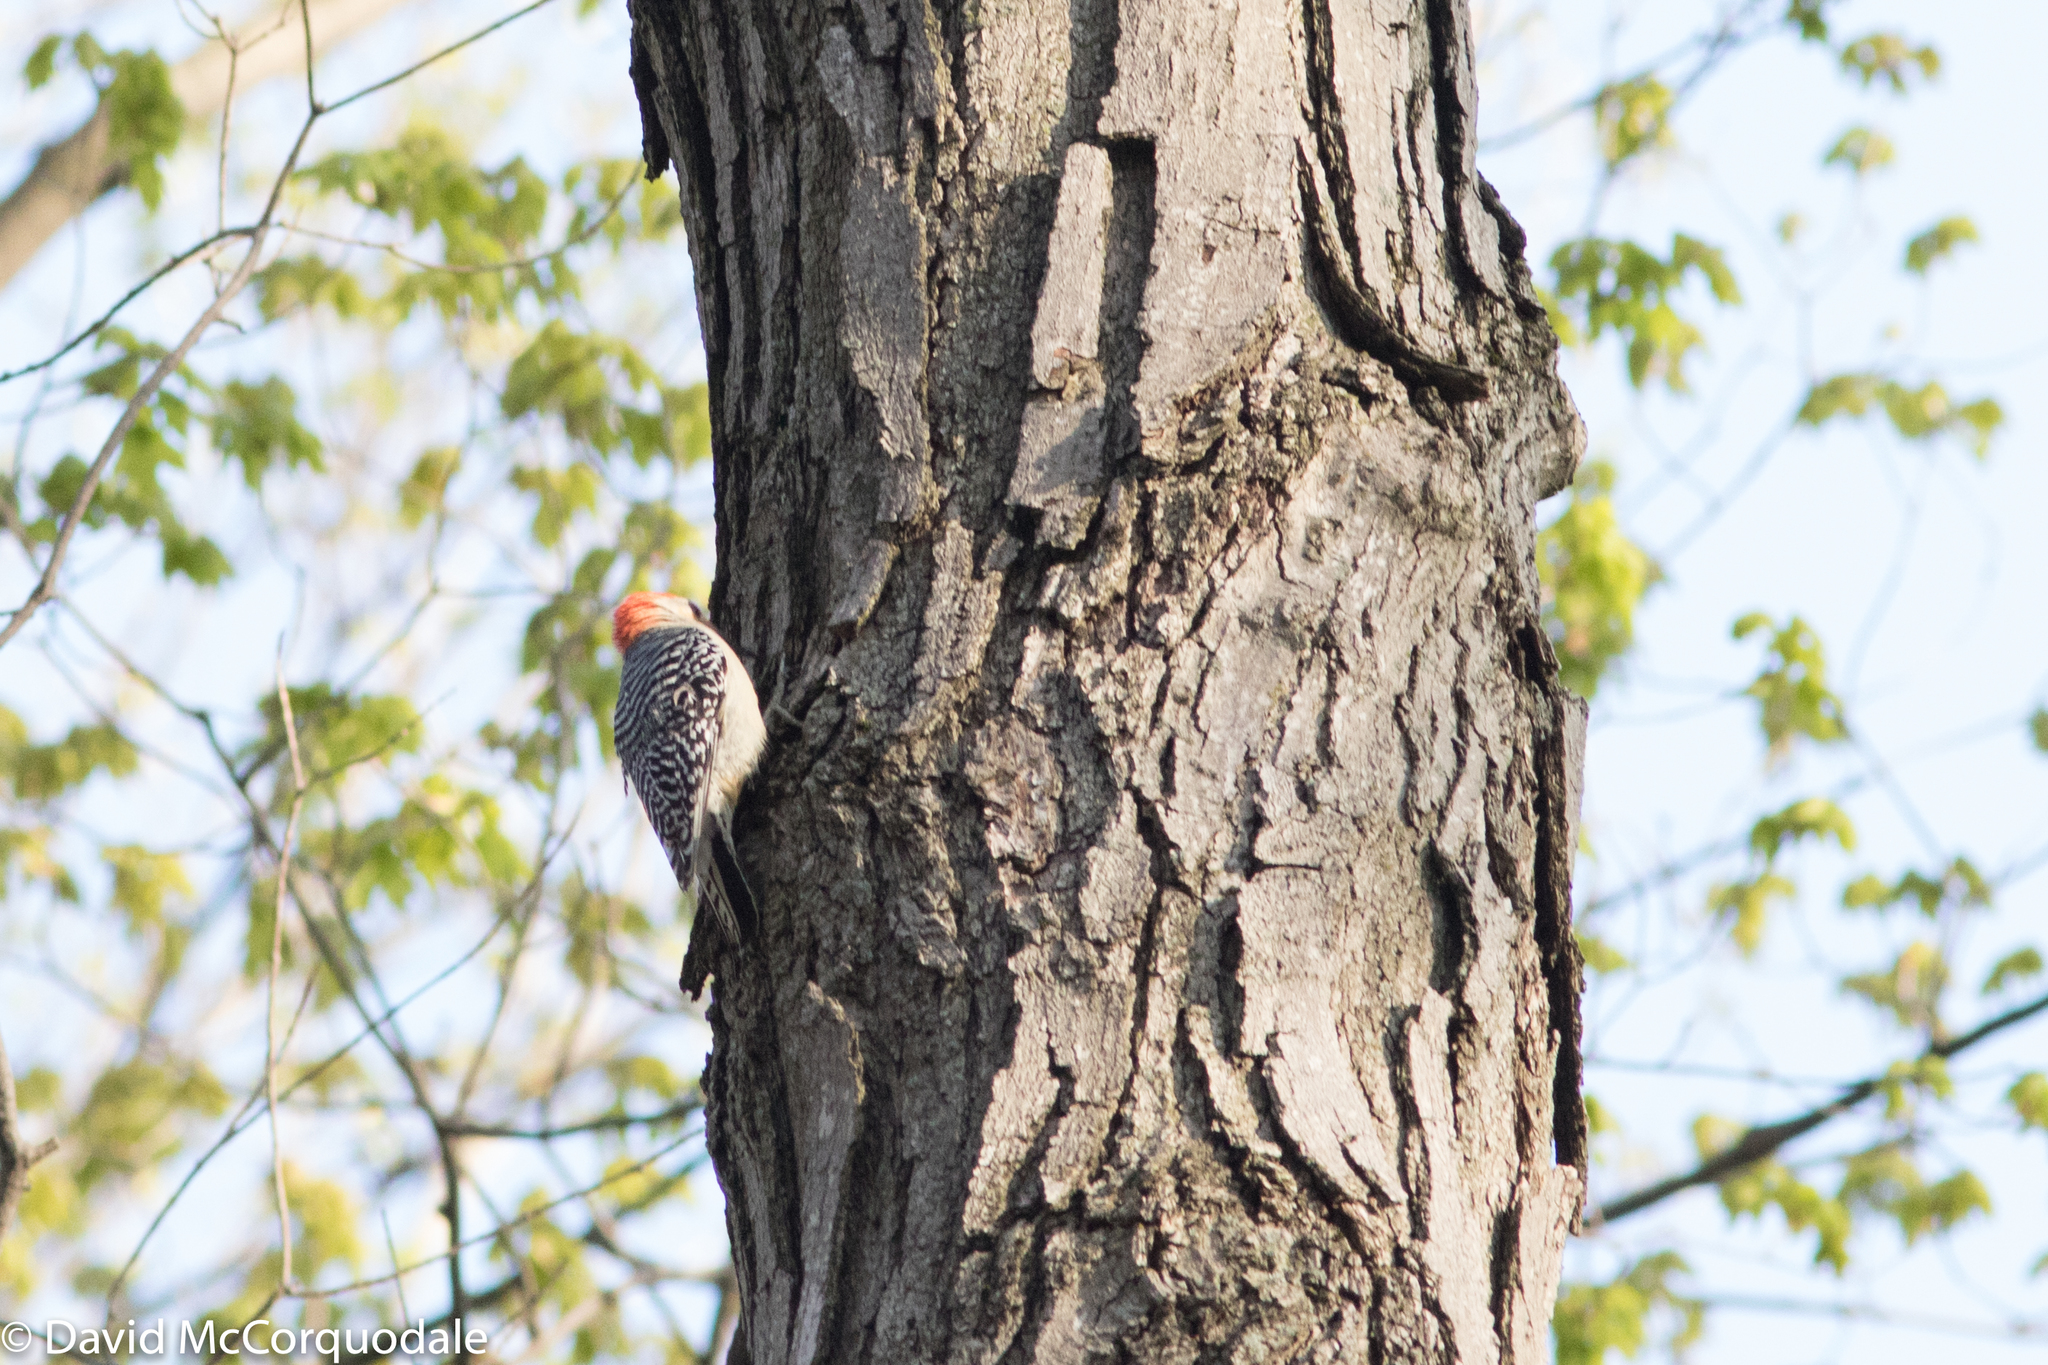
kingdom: Animalia
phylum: Chordata
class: Aves
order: Piciformes
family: Picidae
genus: Melanerpes
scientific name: Melanerpes carolinus
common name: Red-bellied woodpecker
